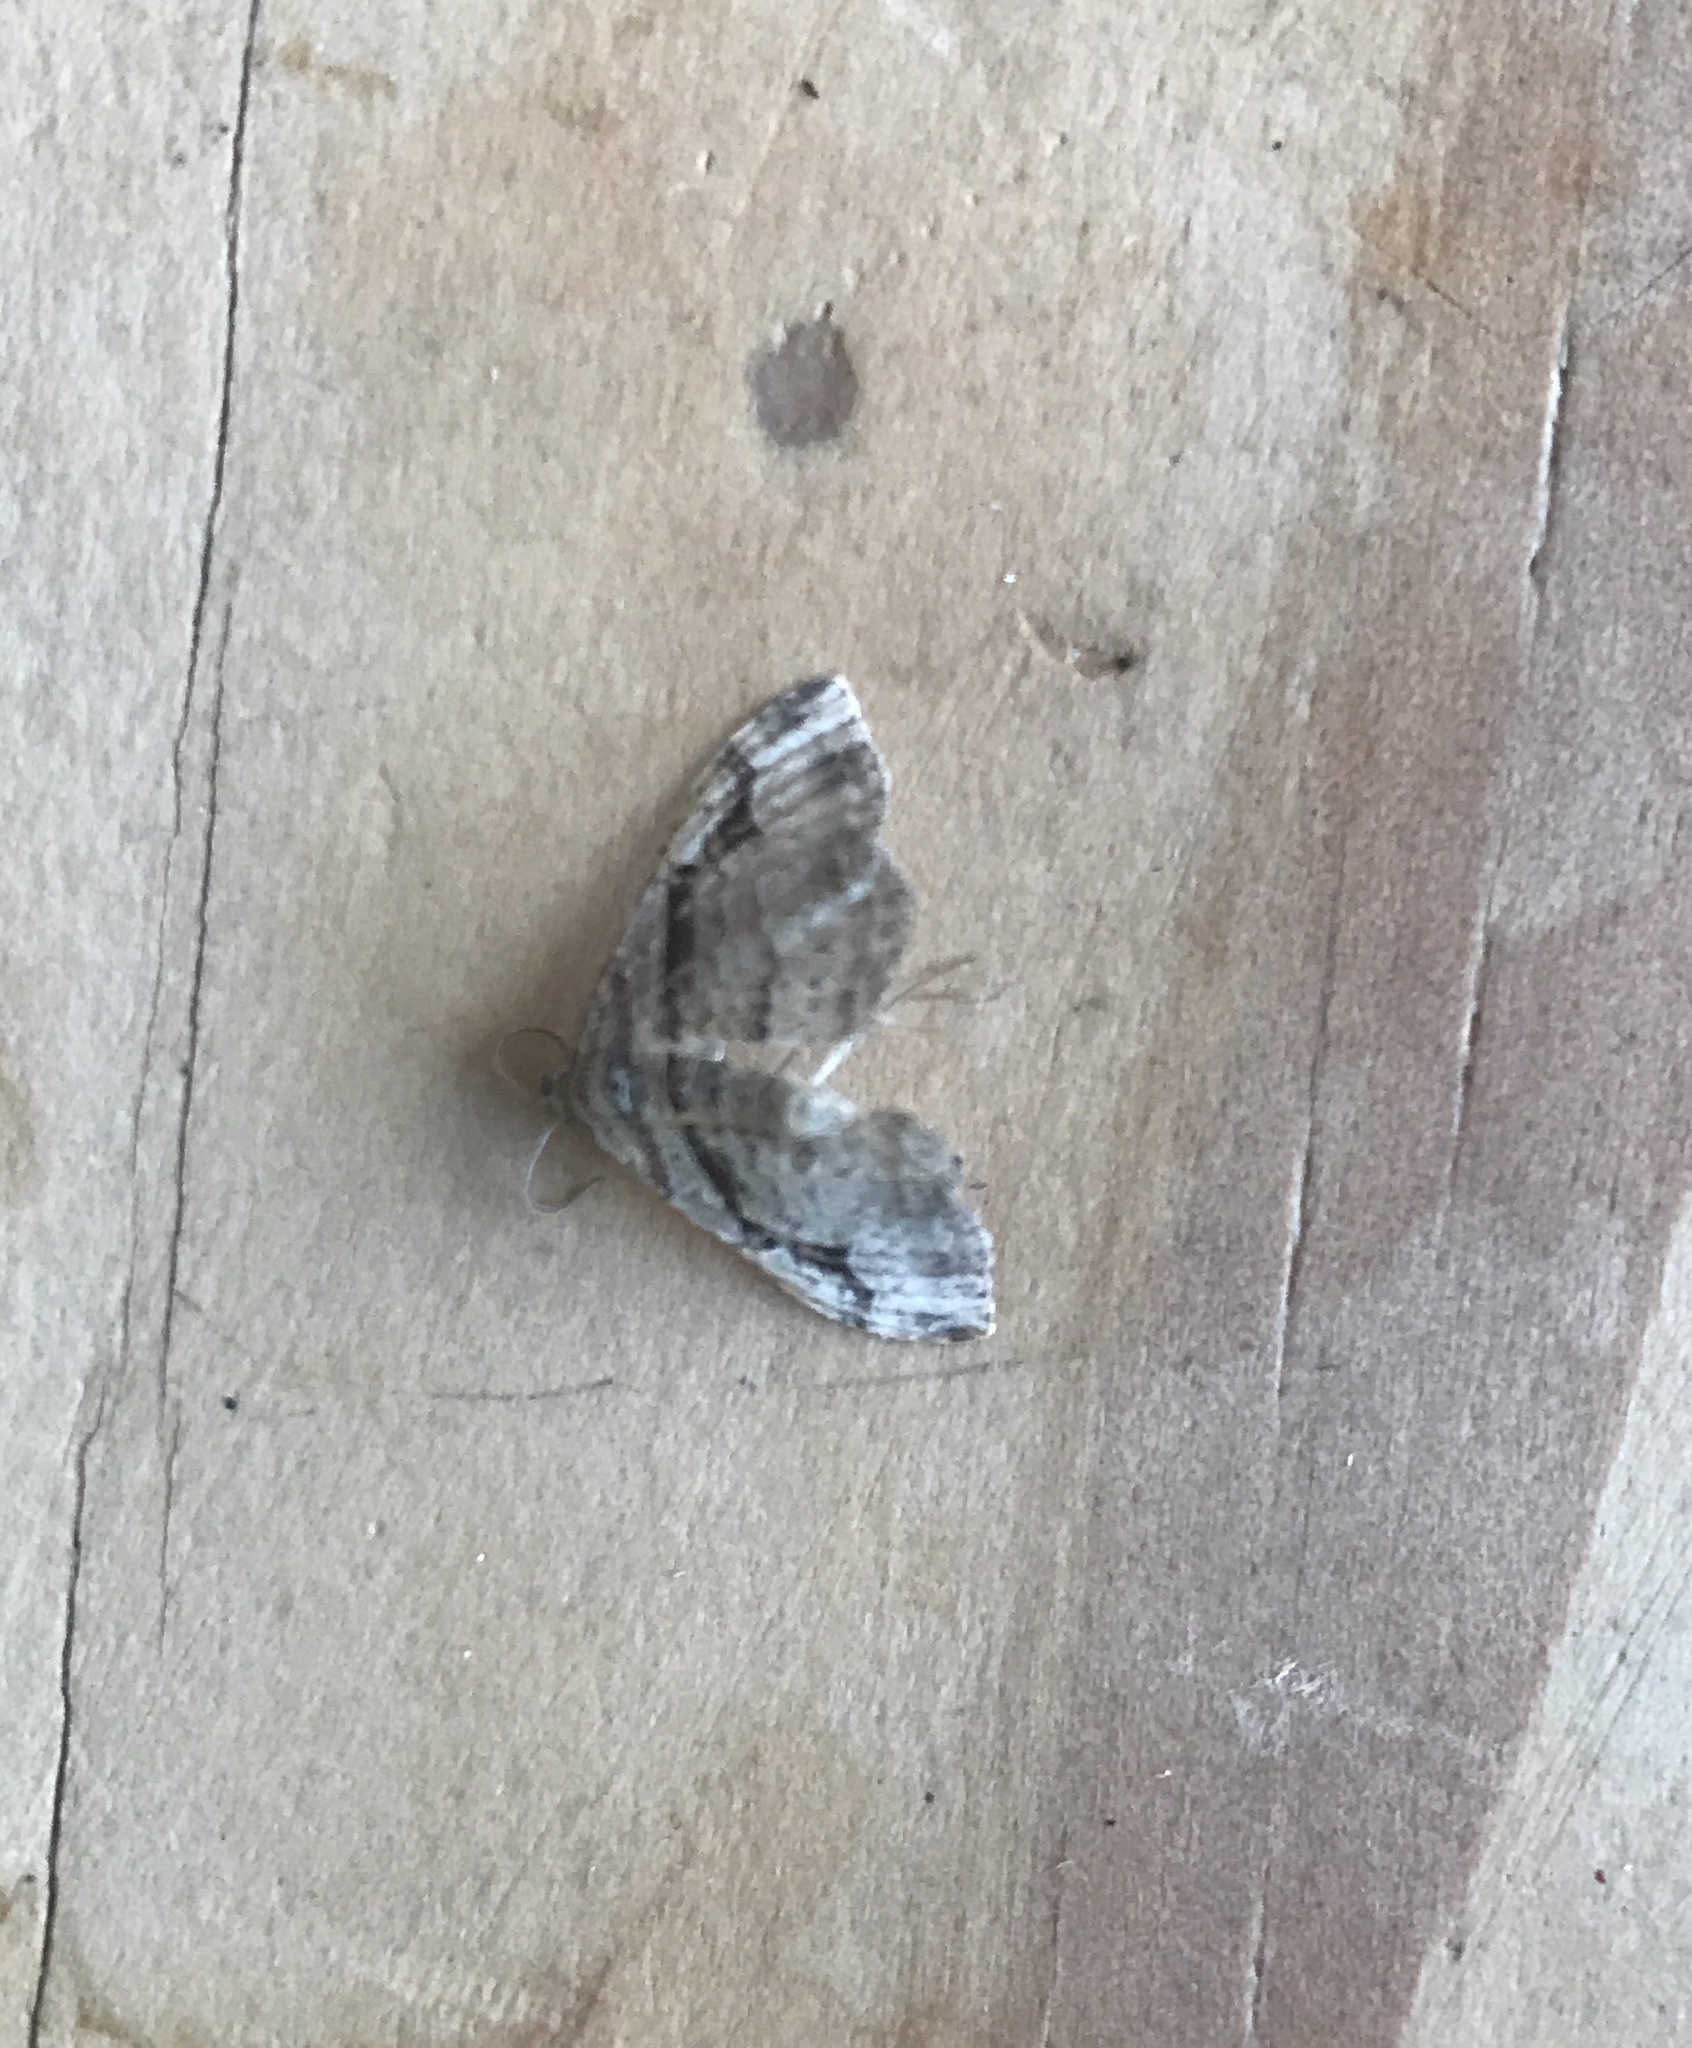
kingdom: Animalia
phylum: Arthropoda
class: Insecta
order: Lepidoptera
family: Geometridae
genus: Costaconvexa
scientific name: Costaconvexa centrostrigaria
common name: Bent-line carpet
